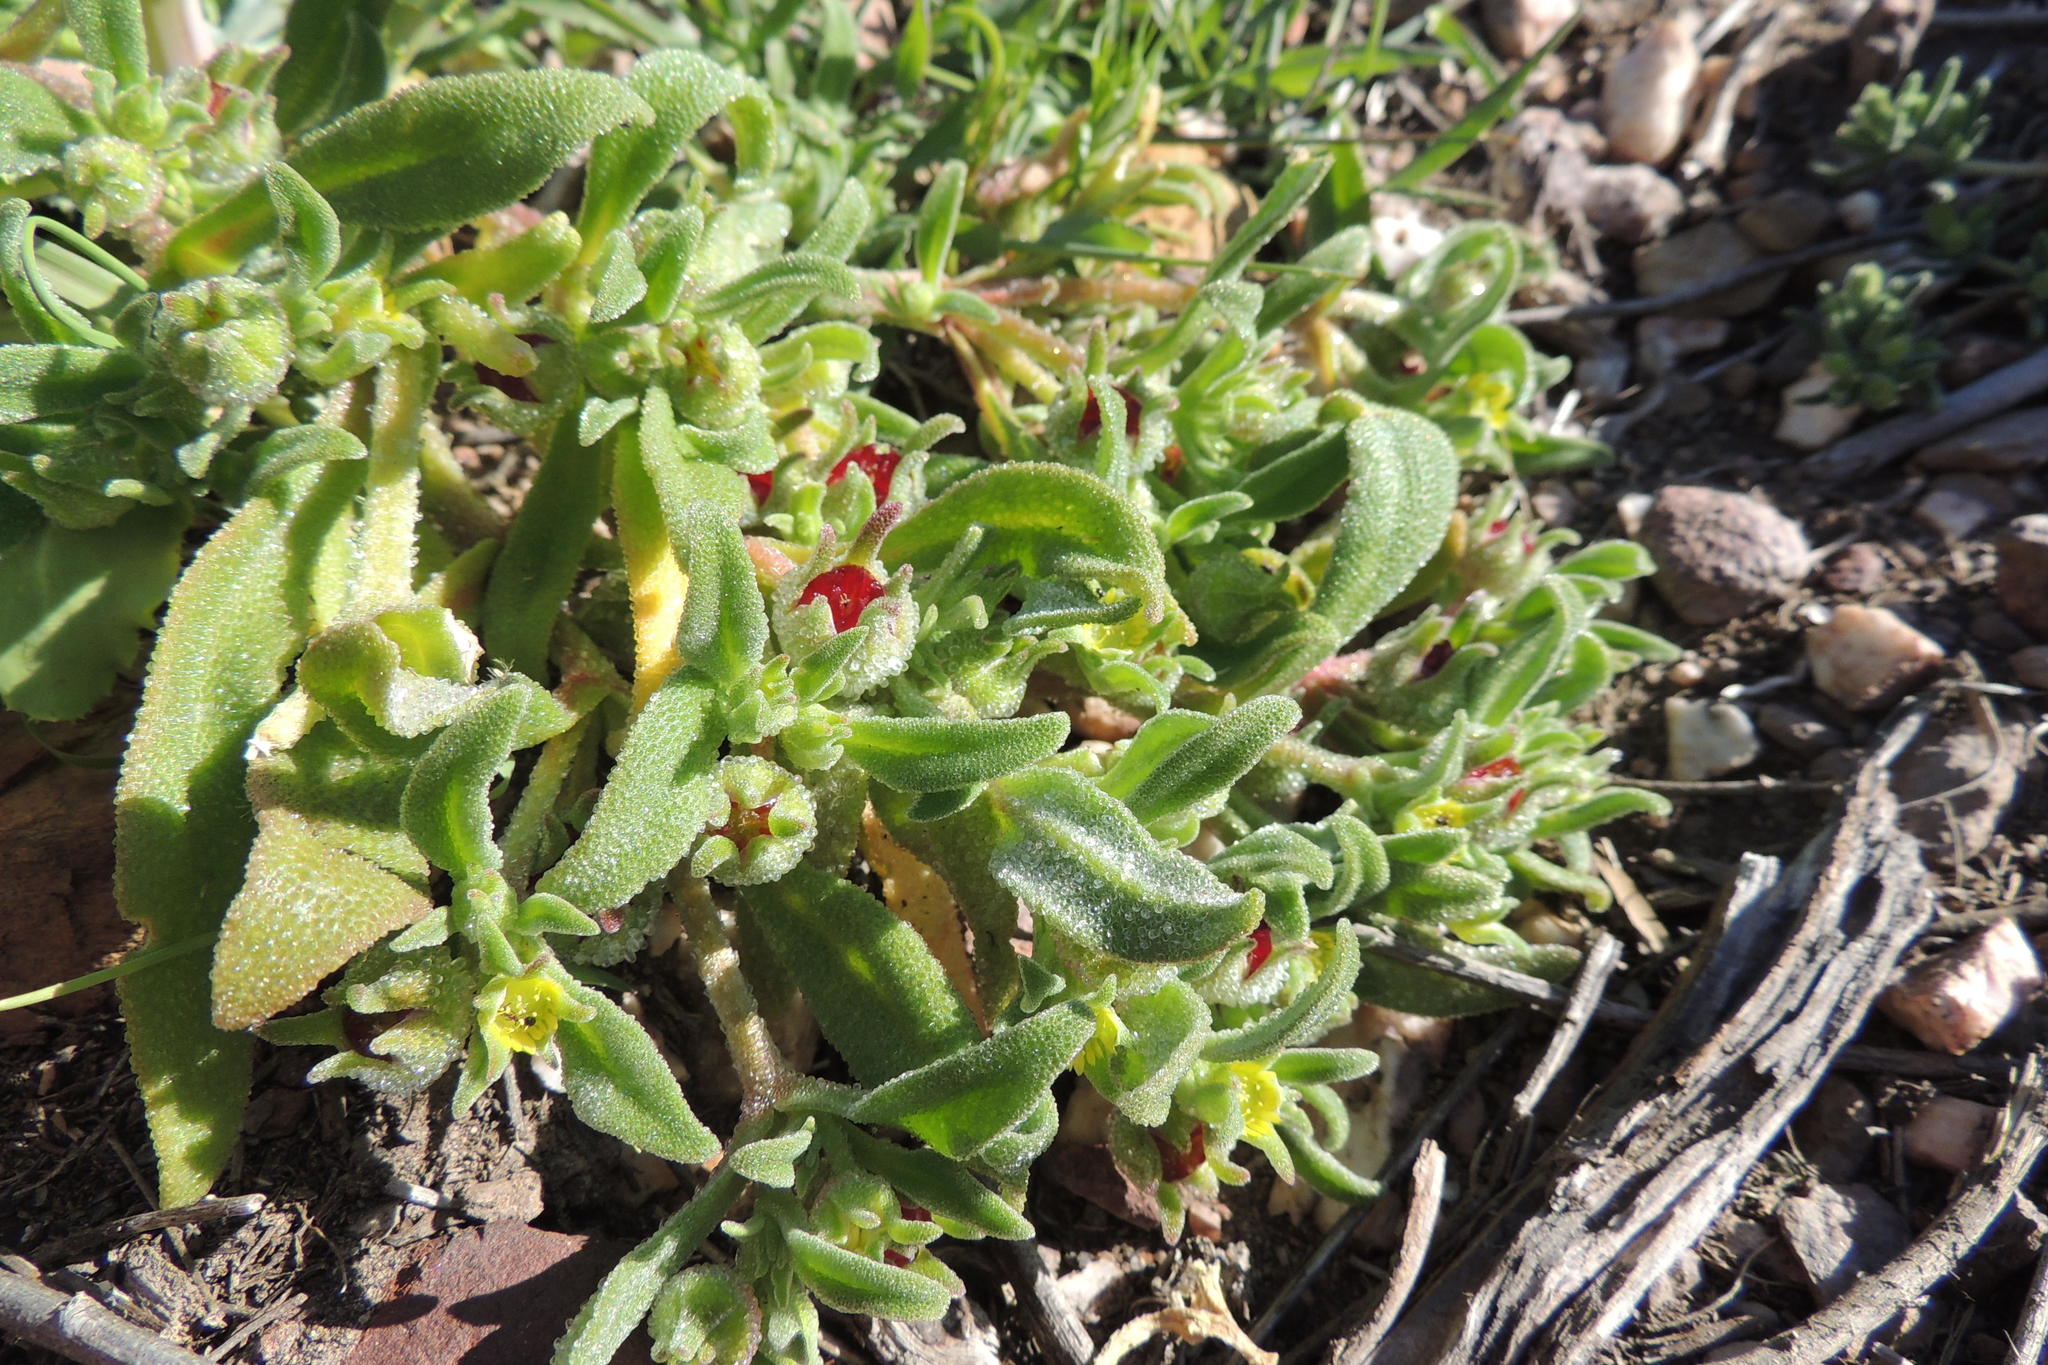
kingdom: Plantae
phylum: Tracheophyta
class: Magnoliopsida
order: Caryophyllales
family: Aizoaceae
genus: Cleretum
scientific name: Cleretum papulosum
